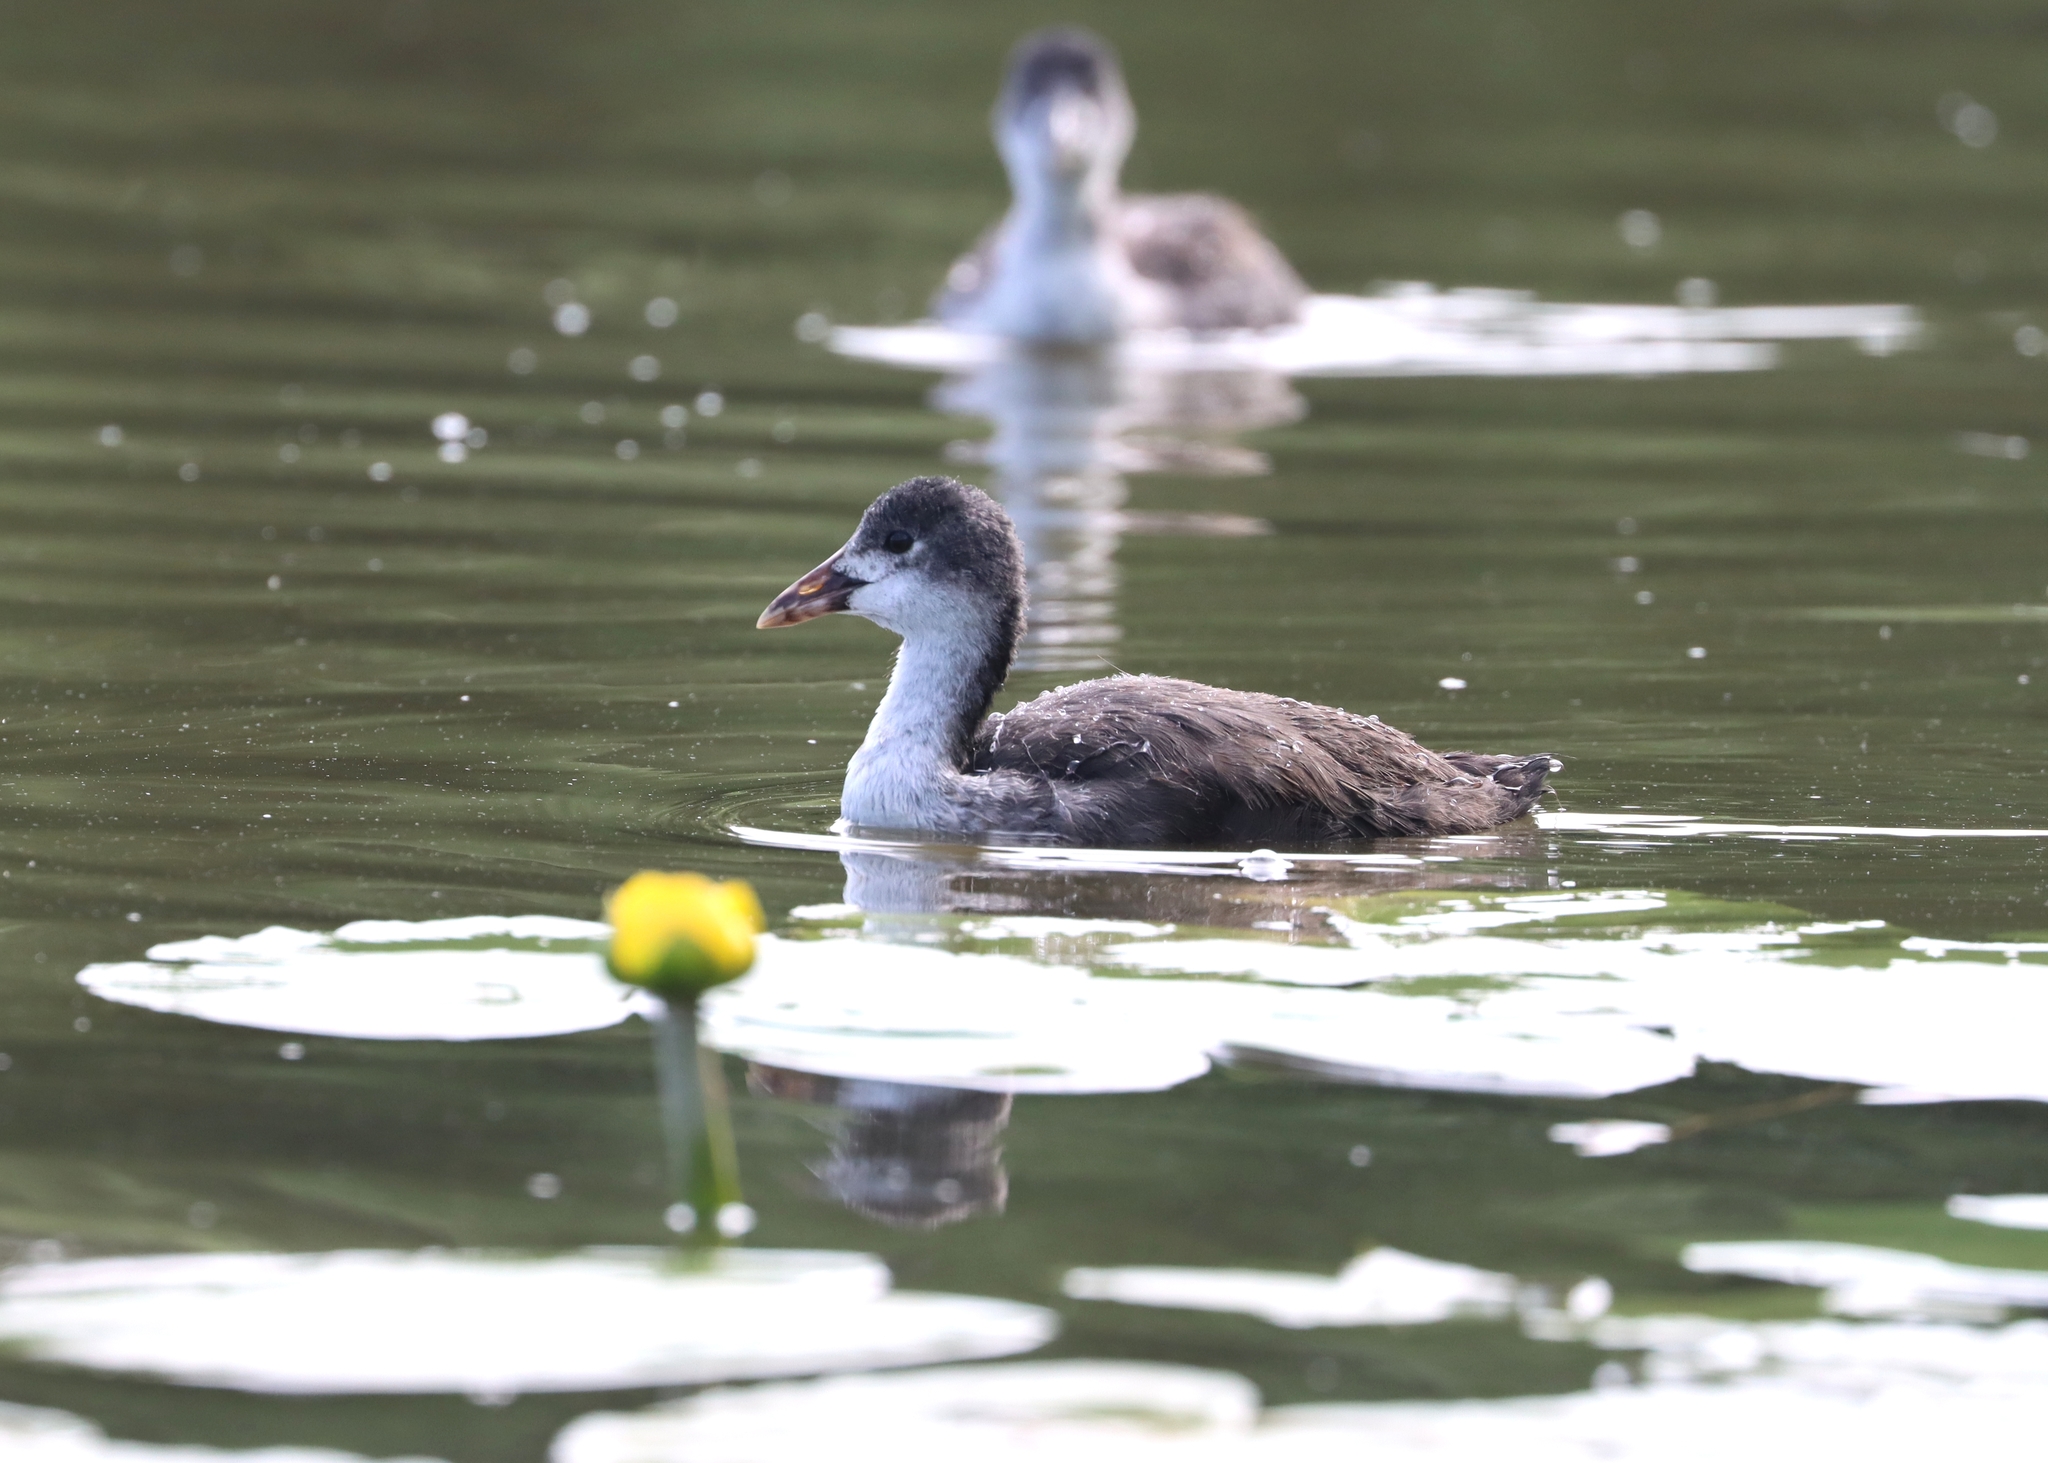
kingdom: Animalia
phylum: Chordata
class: Aves
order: Gruiformes
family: Rallidae
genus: Fulica
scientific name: Fulica atra
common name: Eurasian coot
